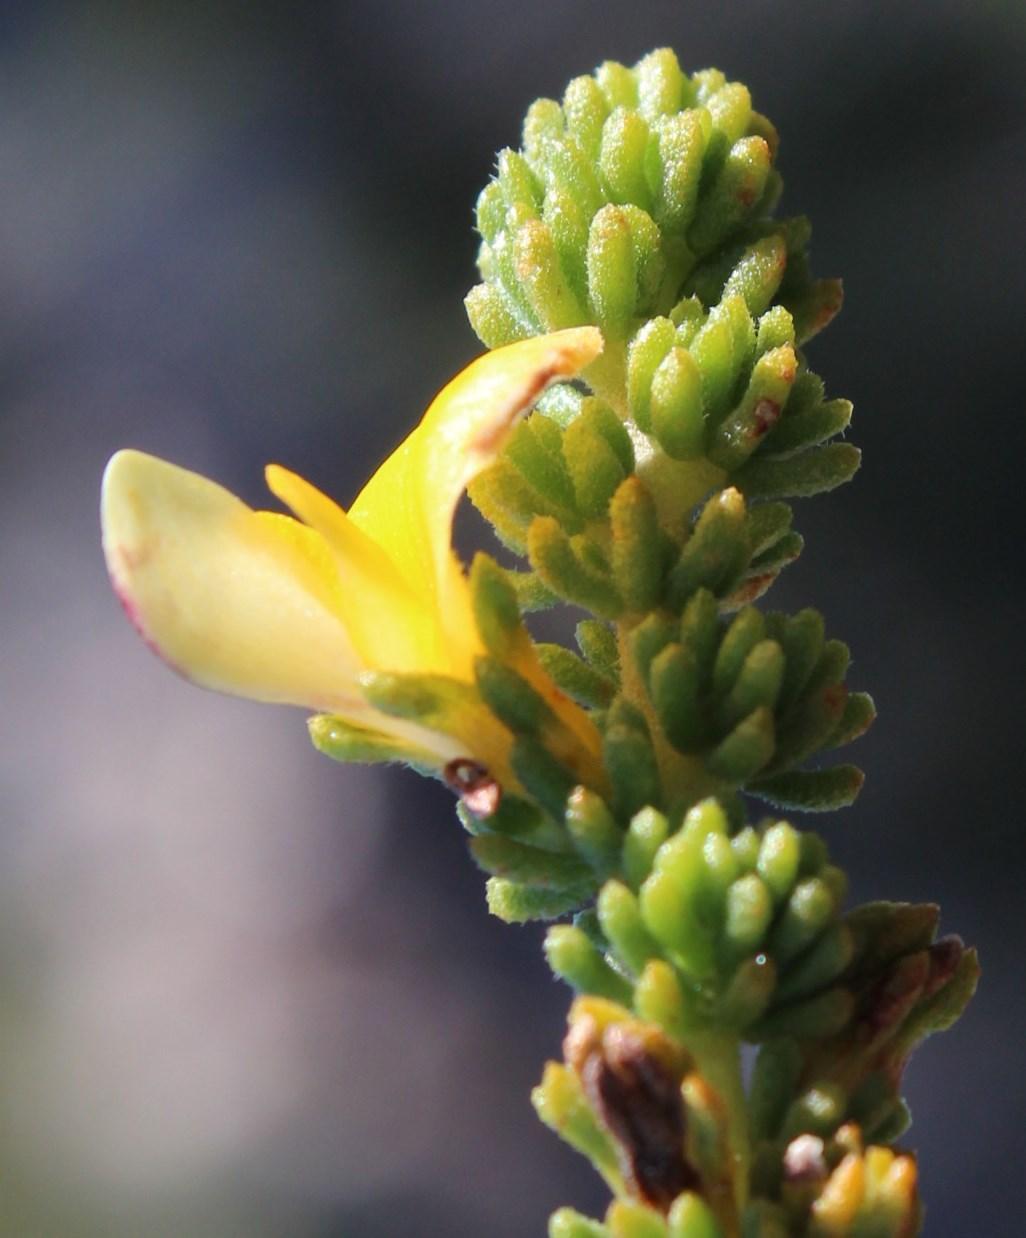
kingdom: Plantae
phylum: Tracheophyta
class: Magnoliopsida
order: Fabales
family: Fabaceae
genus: Aspalathus
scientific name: Aspalathus salteri
